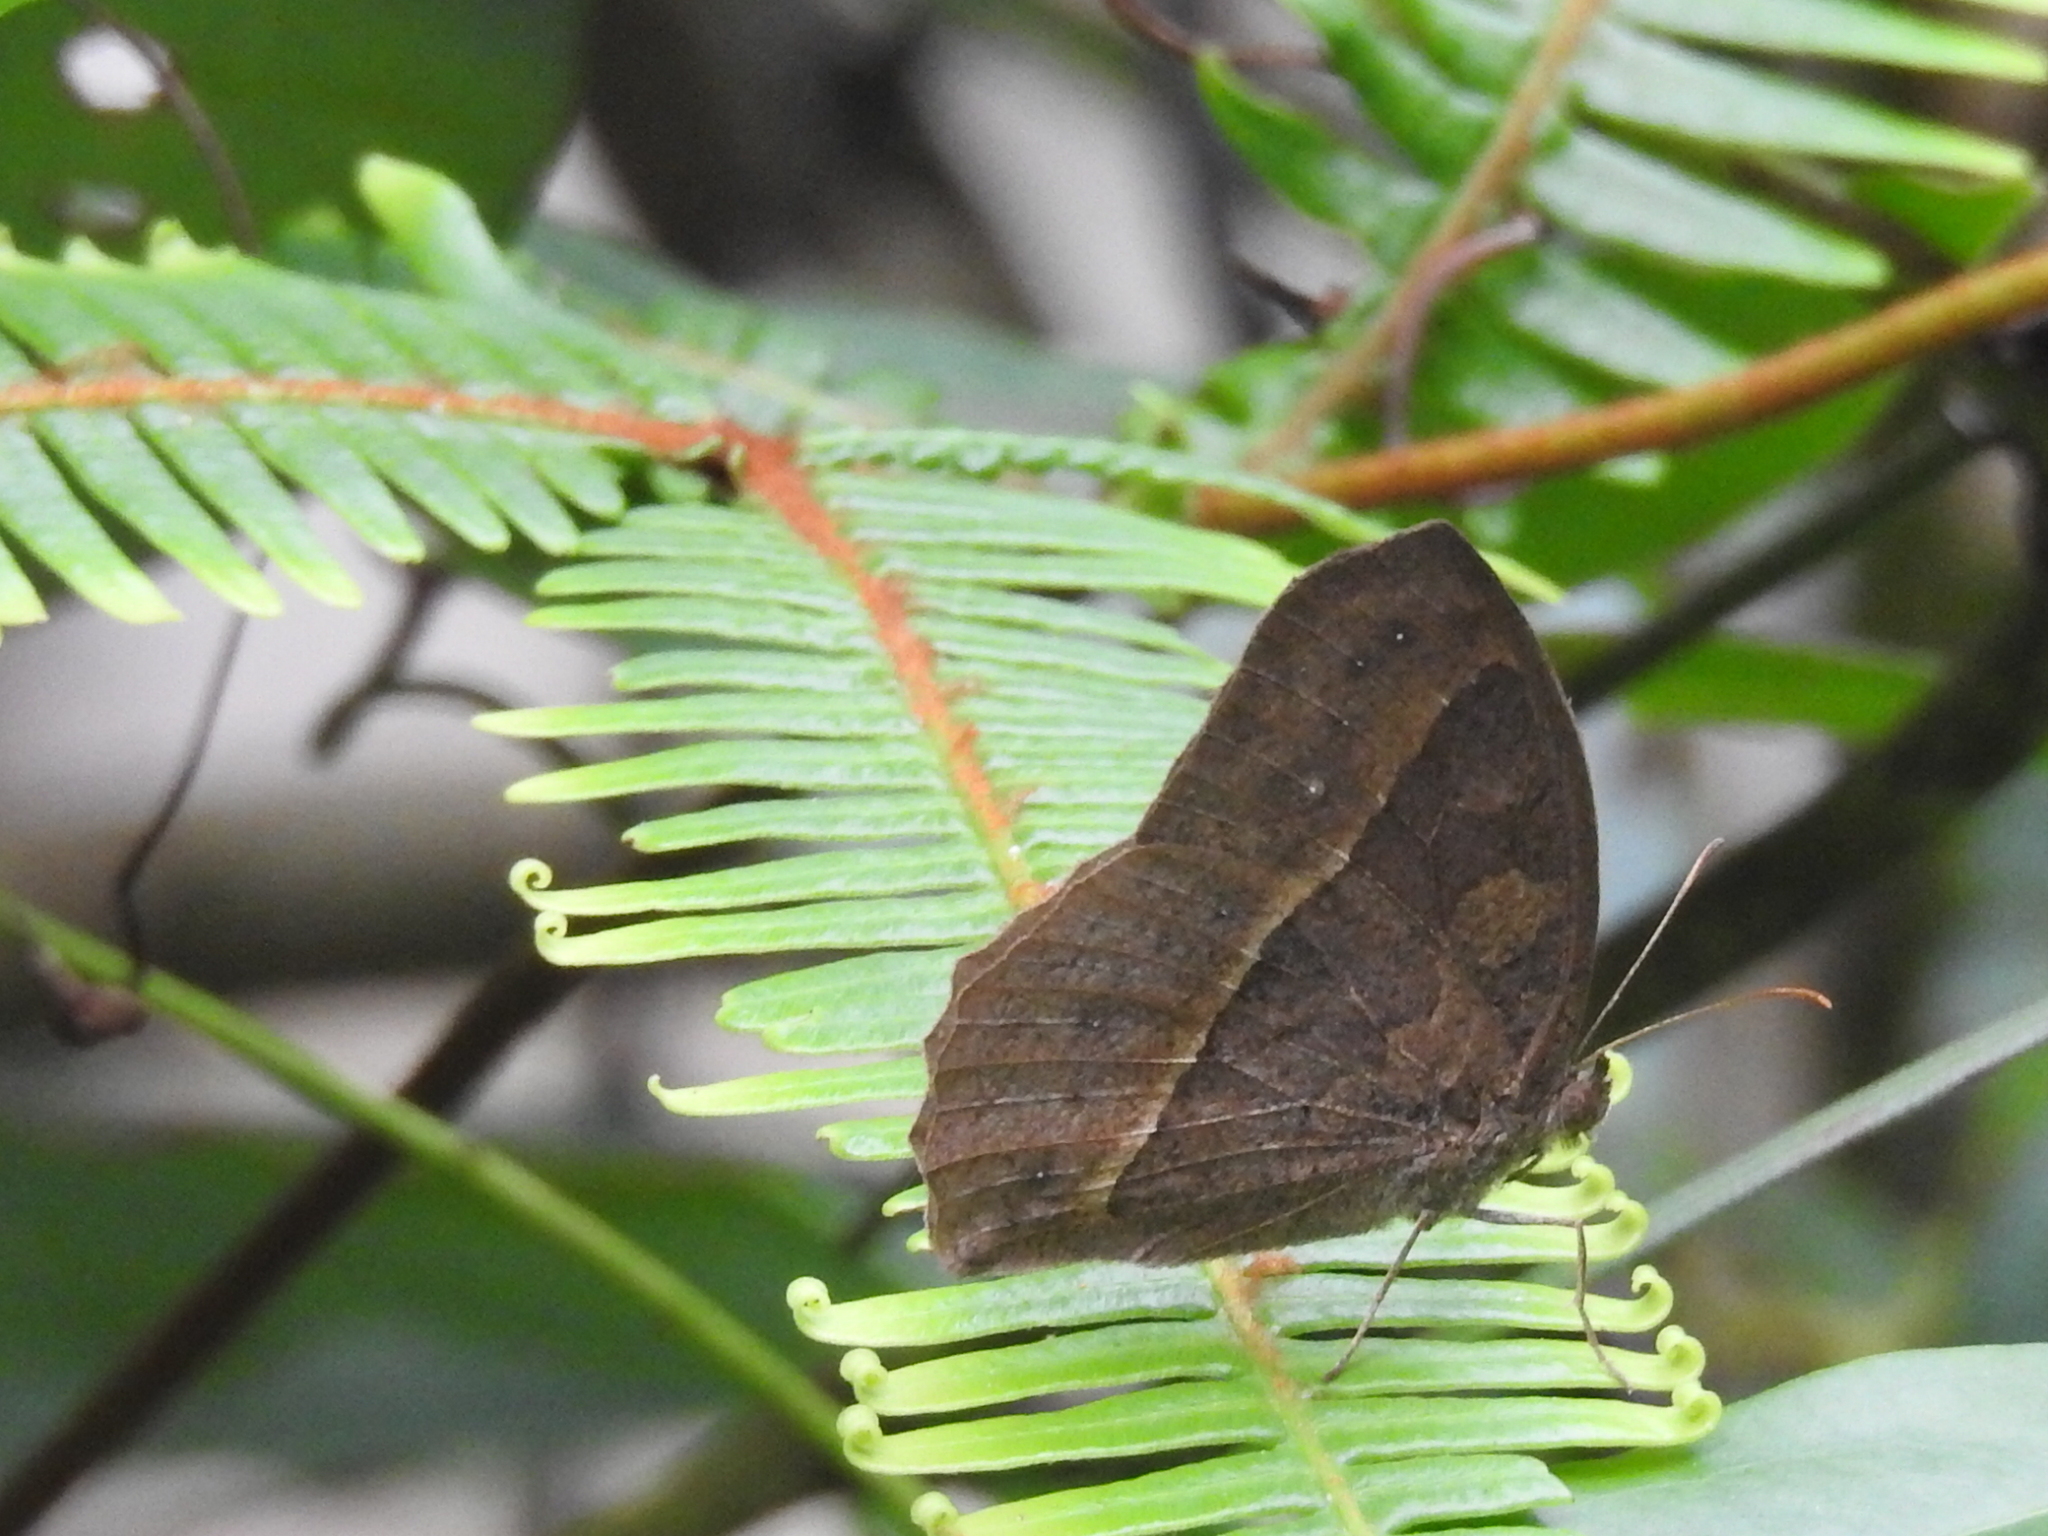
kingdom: Animalia
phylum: Arthropoda
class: Insecta
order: Lepidoptera
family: Nymphalidae
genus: Mycalesis
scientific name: Mycalesis horsfieldii
